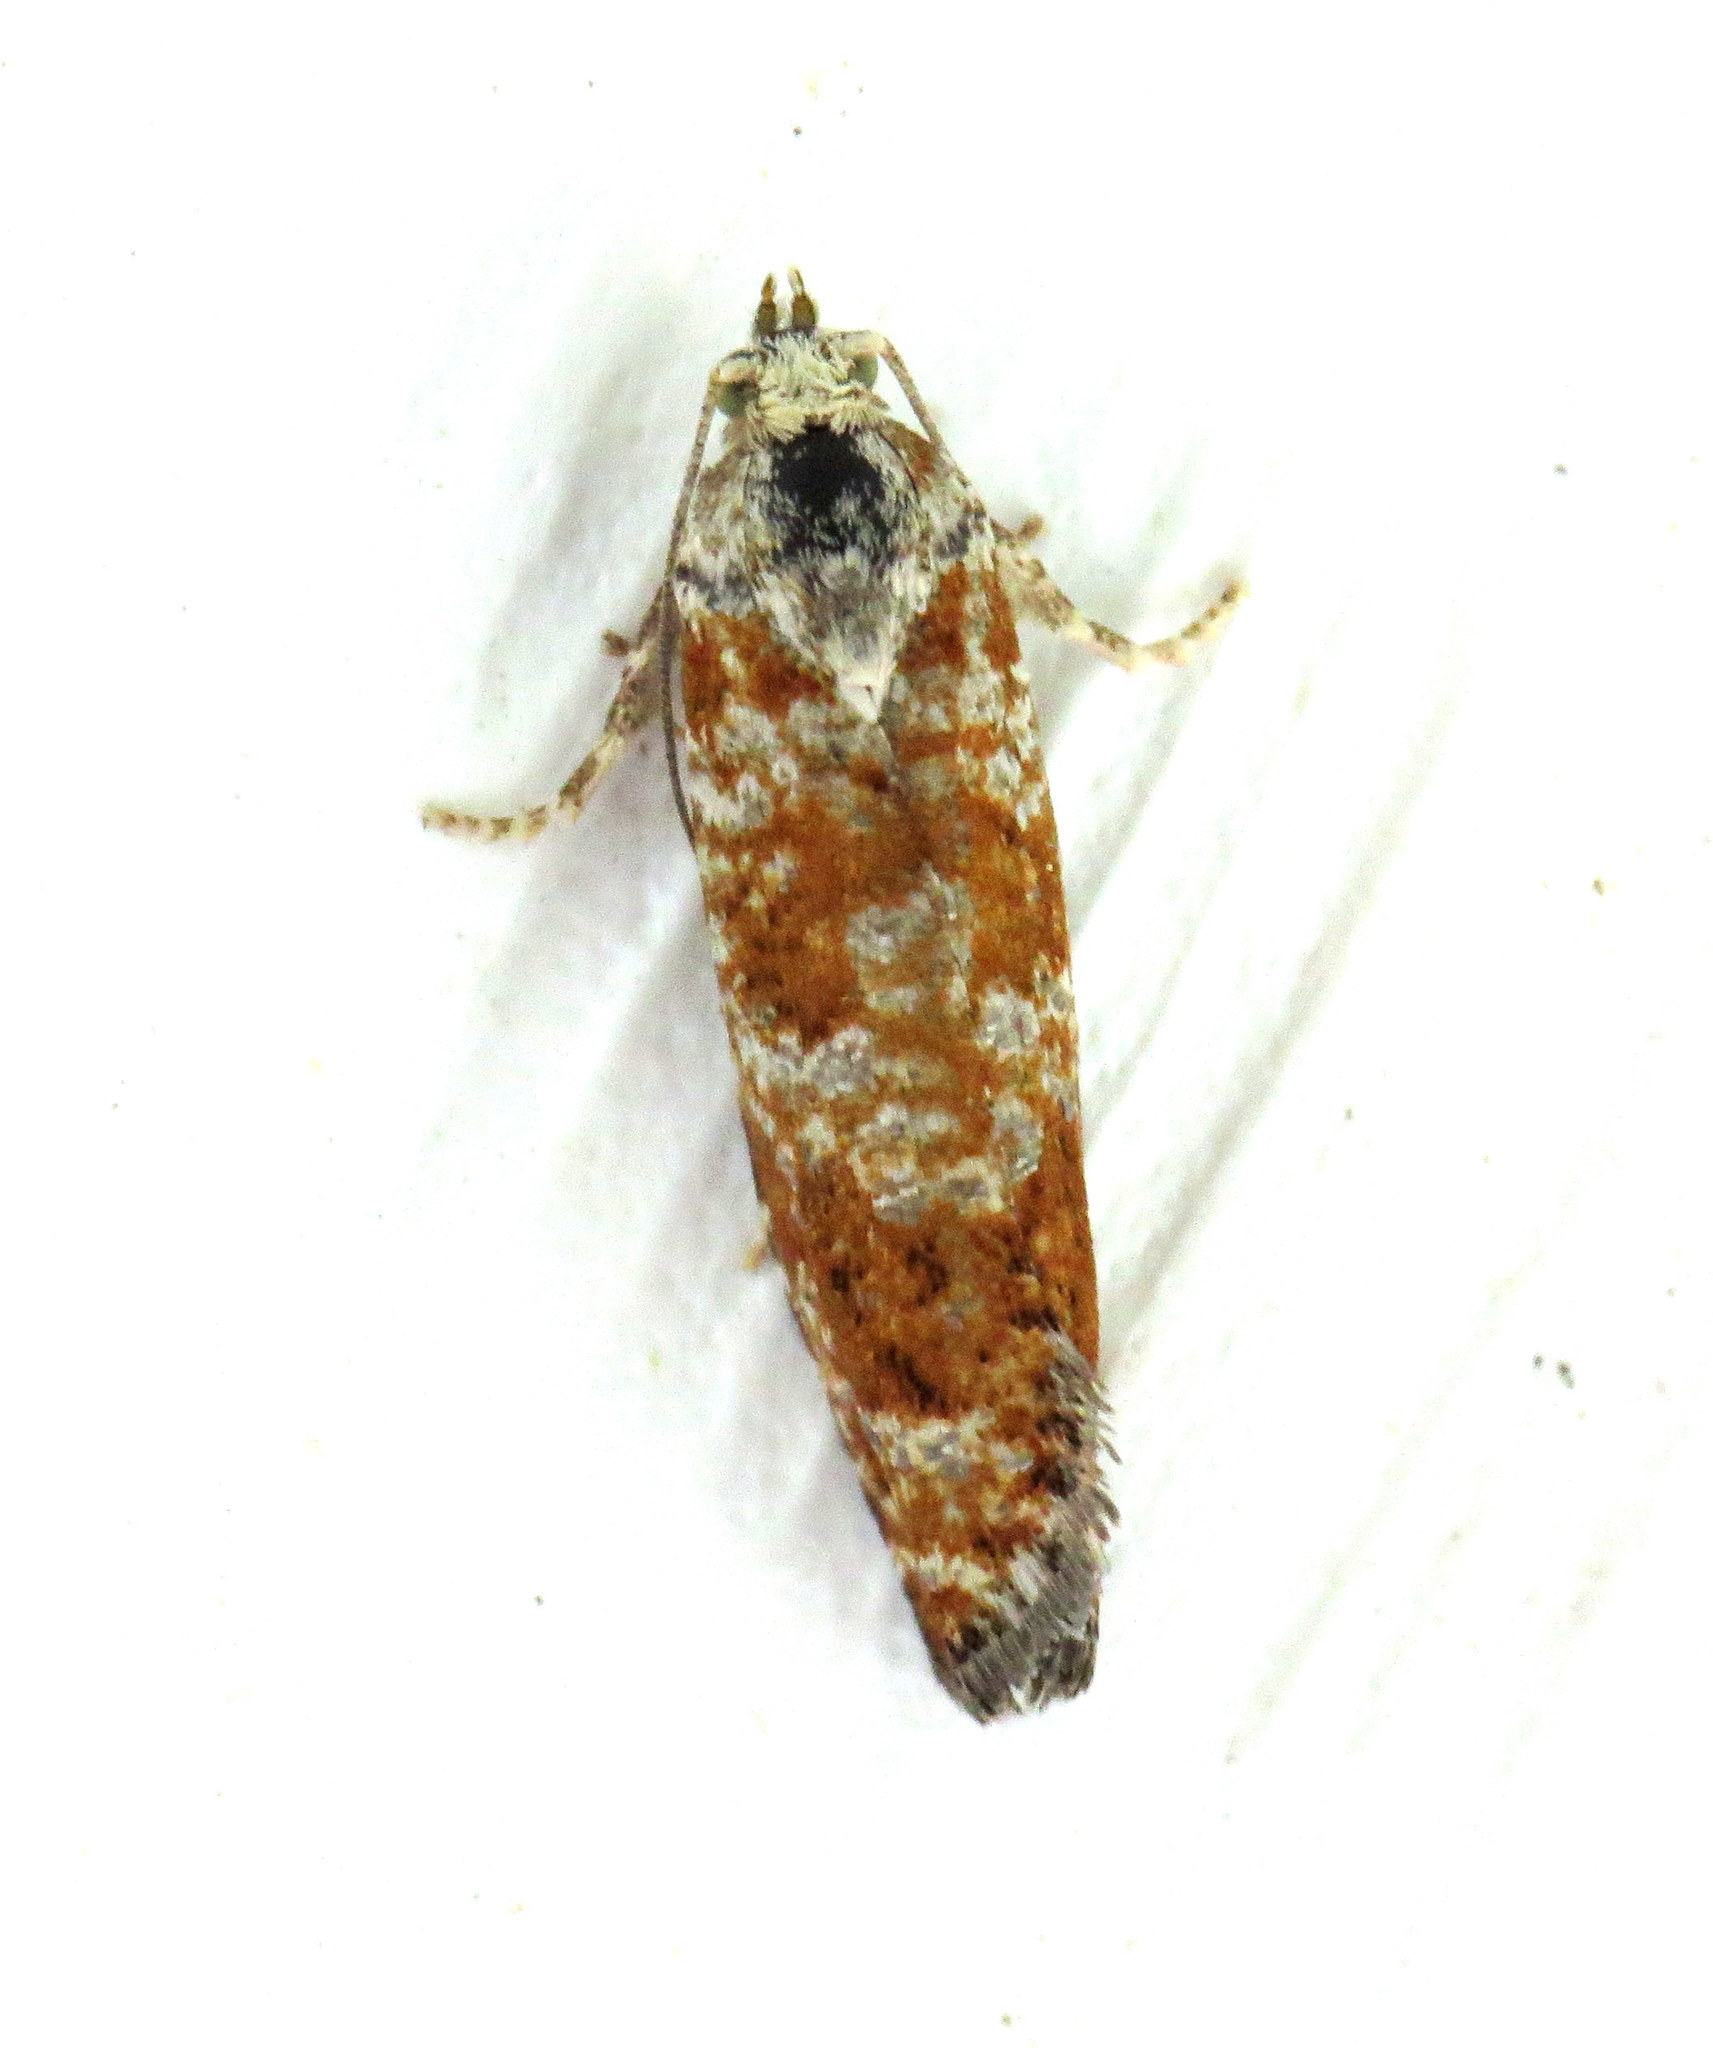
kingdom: Animalia
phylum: Arthropoda
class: Insecta
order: Lepidoptera
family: Tortricidae
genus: Retinia
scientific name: Retinia albicapitana
